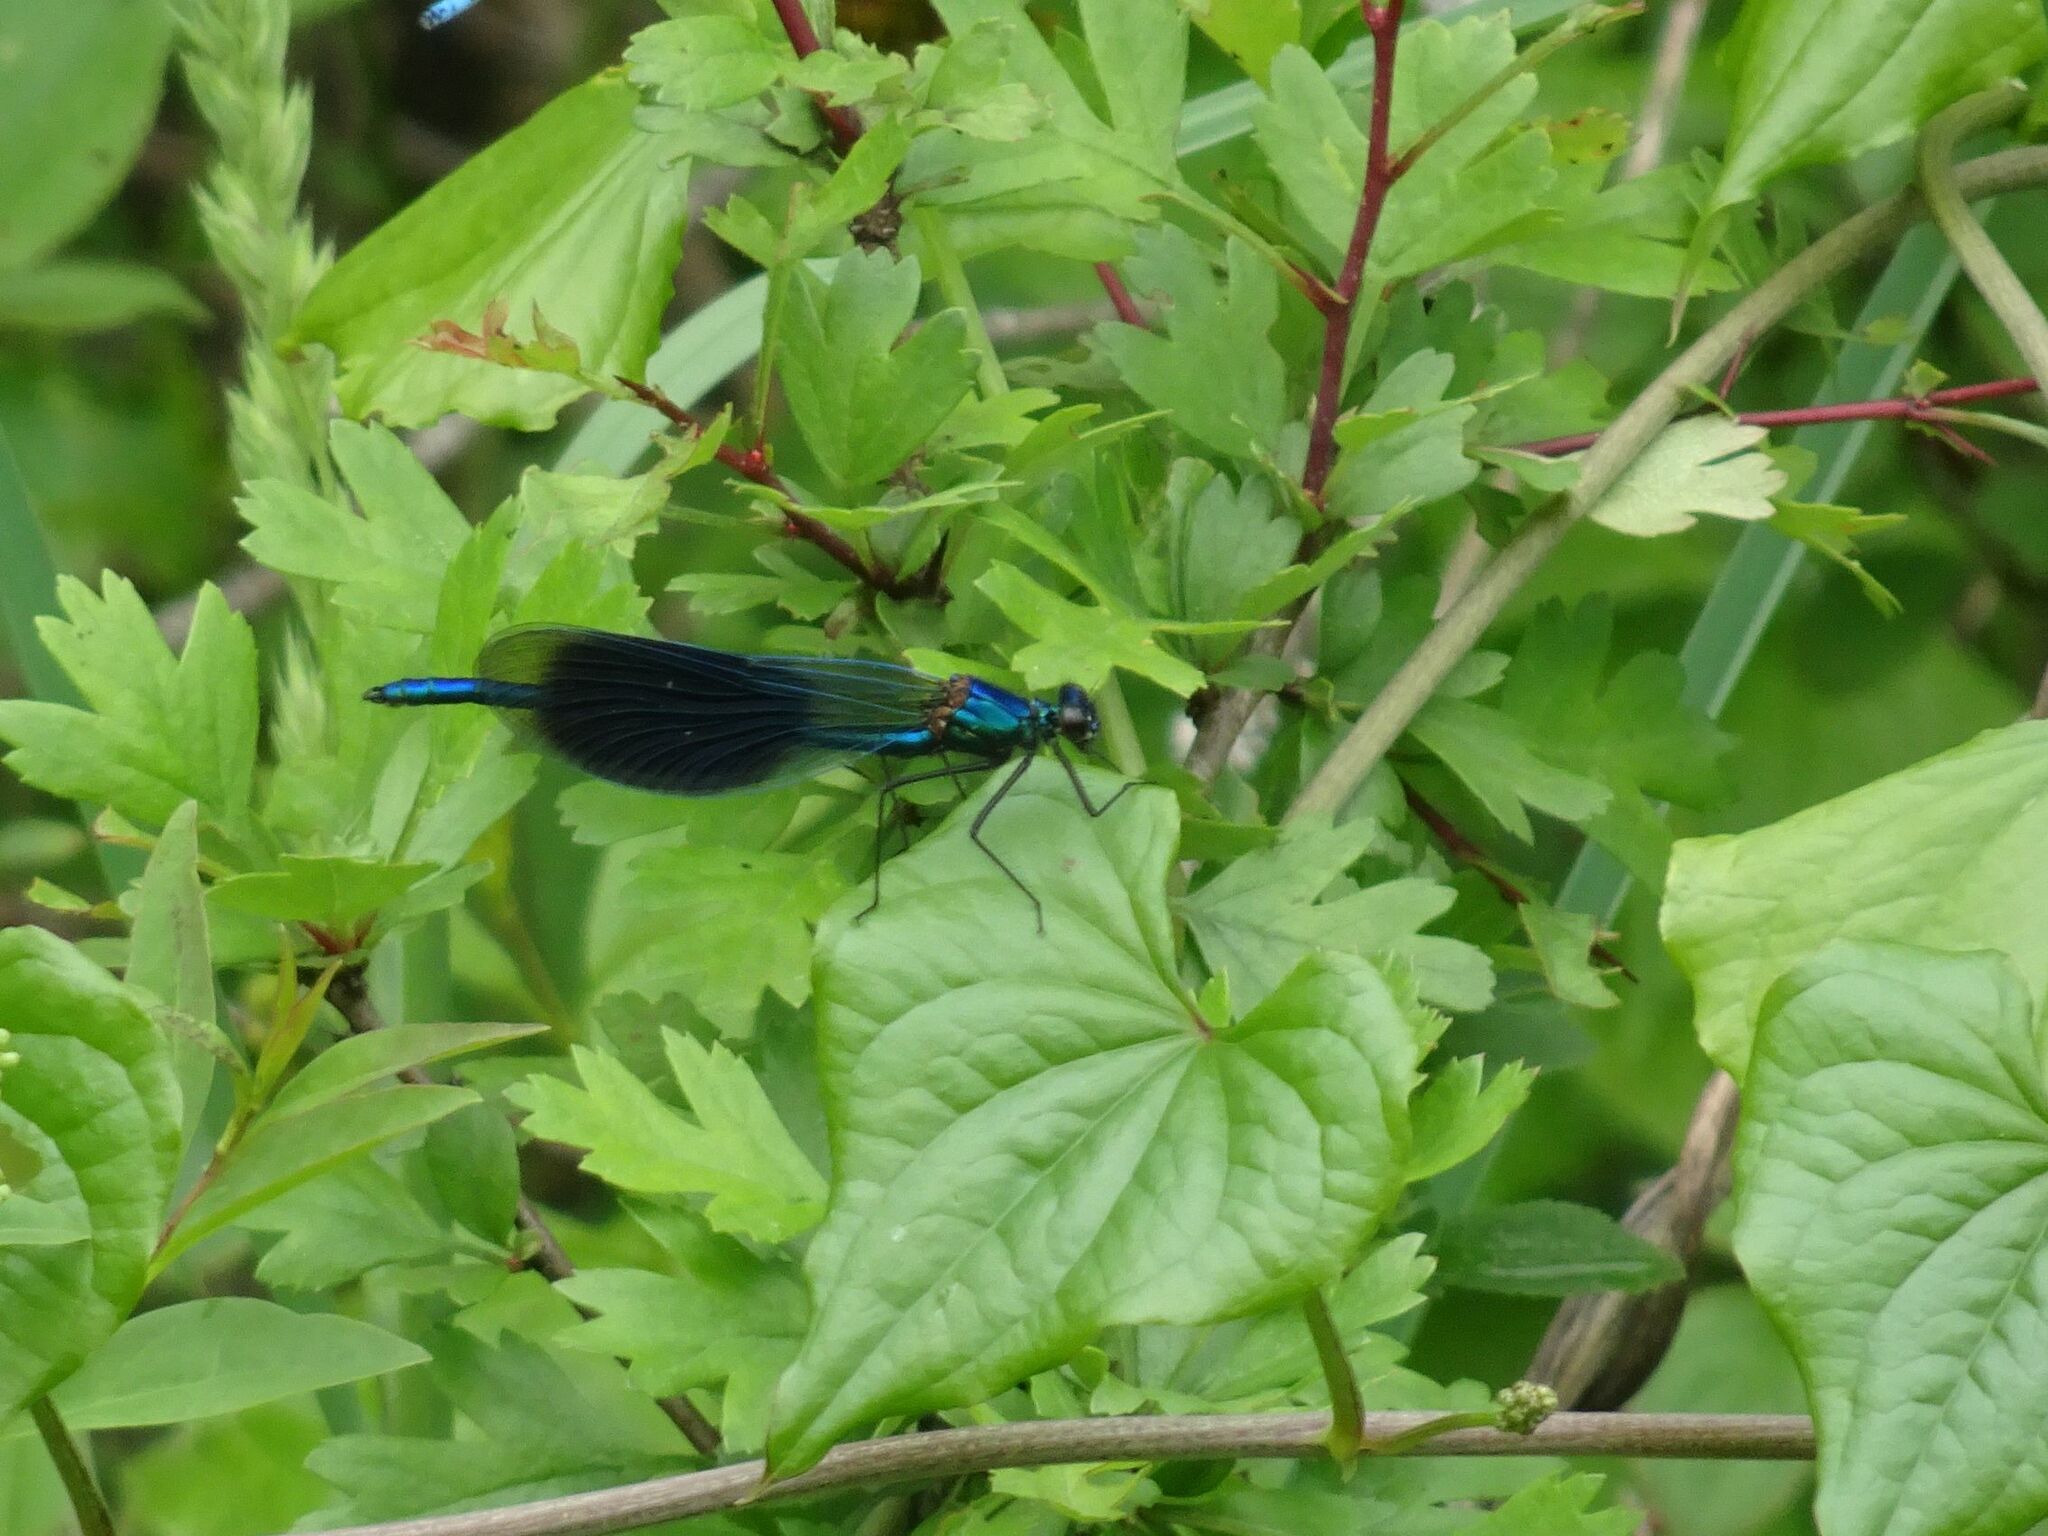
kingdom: Animalia
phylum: Arthropoda
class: Insecta
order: Odonata
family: Calopterygidae
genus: Calopteryx
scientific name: Calopteryx splendens
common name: Banded demoiselle
